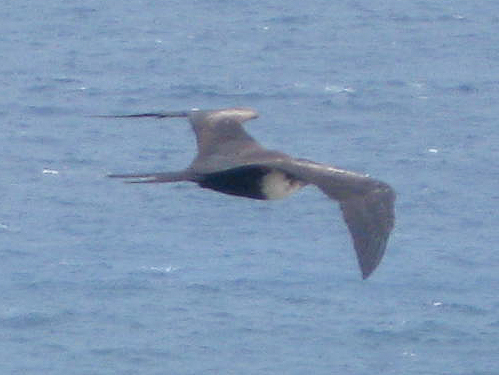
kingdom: Animalia
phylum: Chordata
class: Aves
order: Suliformes
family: Fregatidae
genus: Fregata
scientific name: Fregata minor
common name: Great frigatebird
